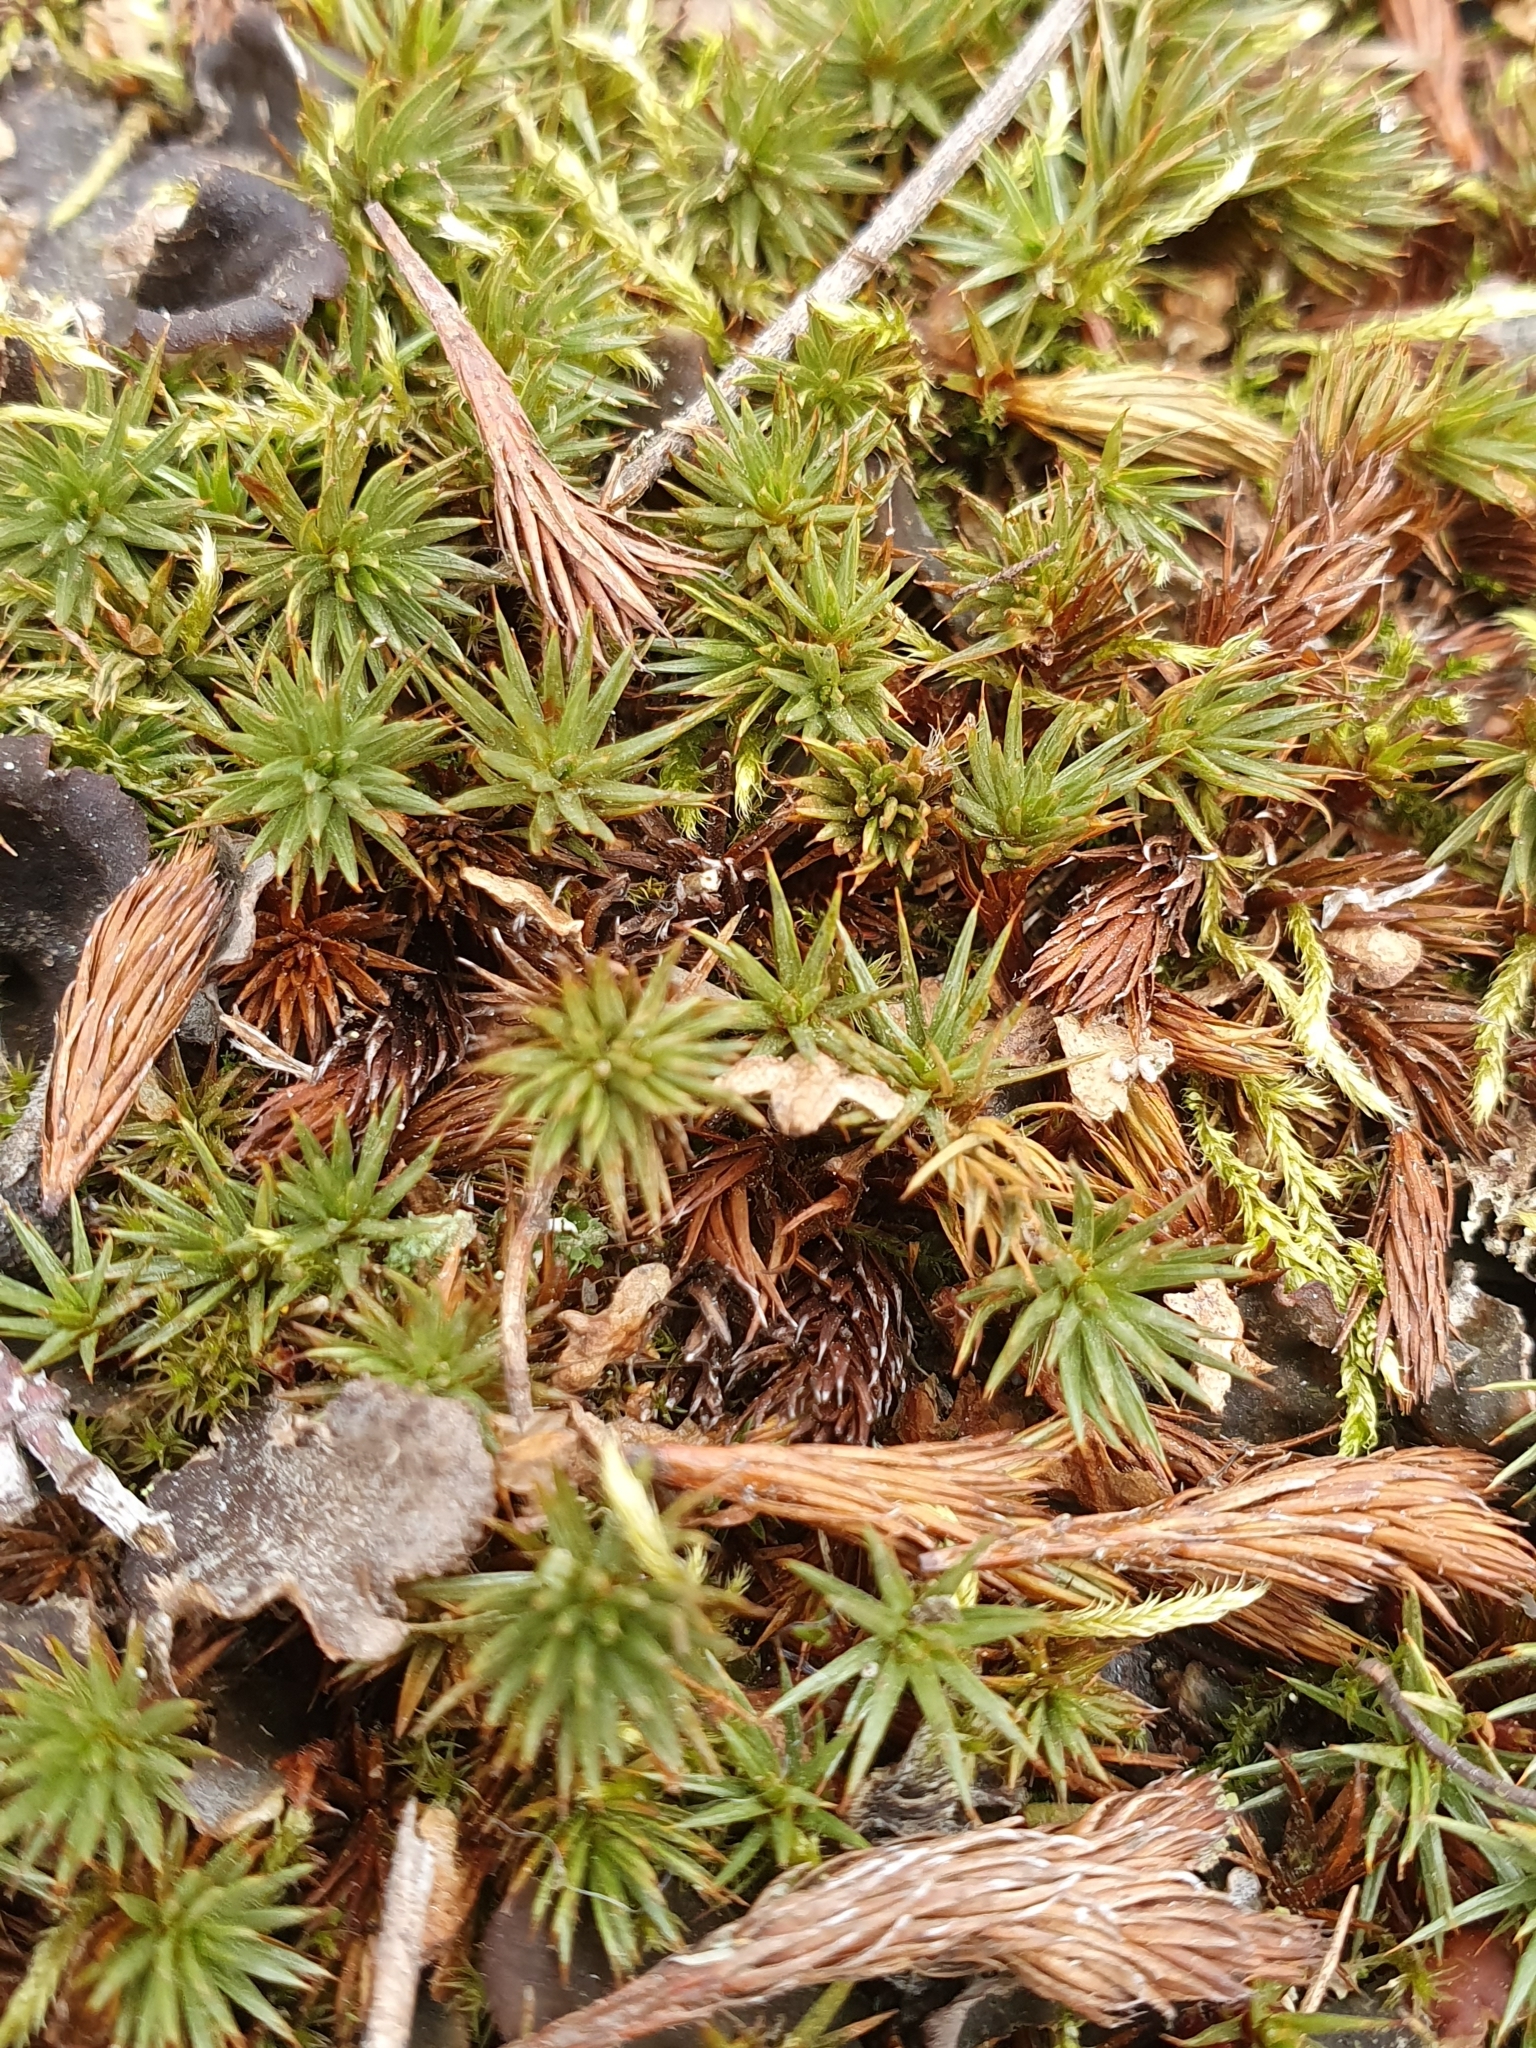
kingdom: Plantae
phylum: Bryophyta
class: Polytrichopsida
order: Polytrichales
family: Polytrichaceae
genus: Polytrichum
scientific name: Polytrichum juniperinum
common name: Juniper haircap moss
